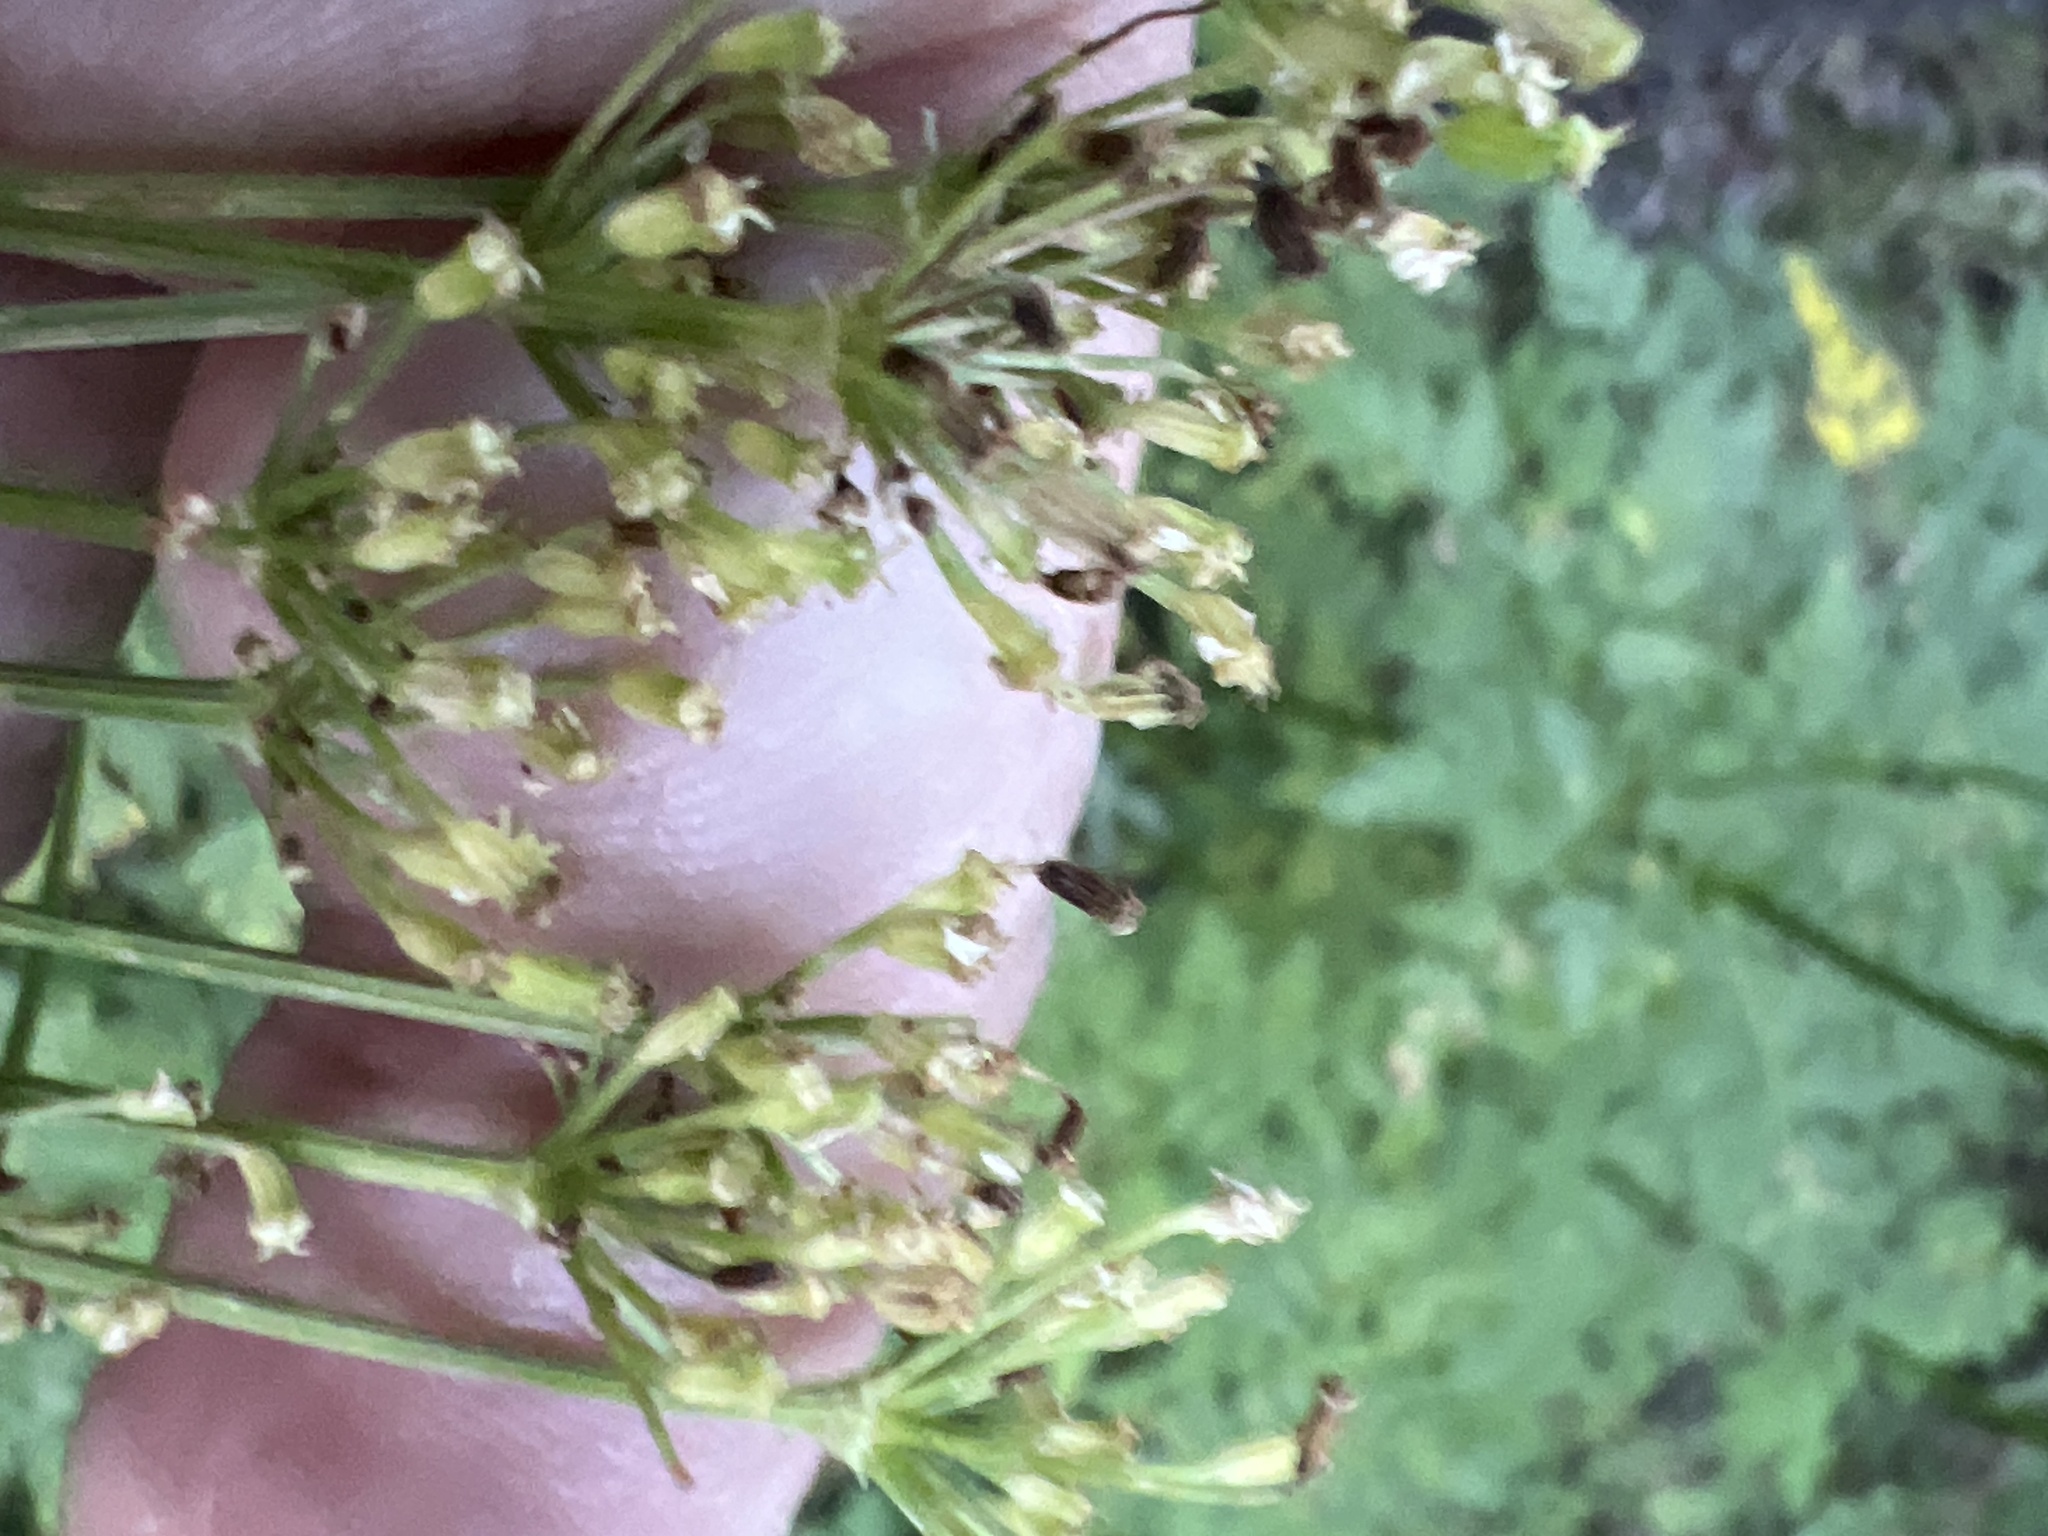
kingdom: Plantae
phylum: Tracheophyta
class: Magnoliopsida
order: Apiales
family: Apiaceae
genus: Ligusticum
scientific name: Ligusticum porteri
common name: Mountain lovage
